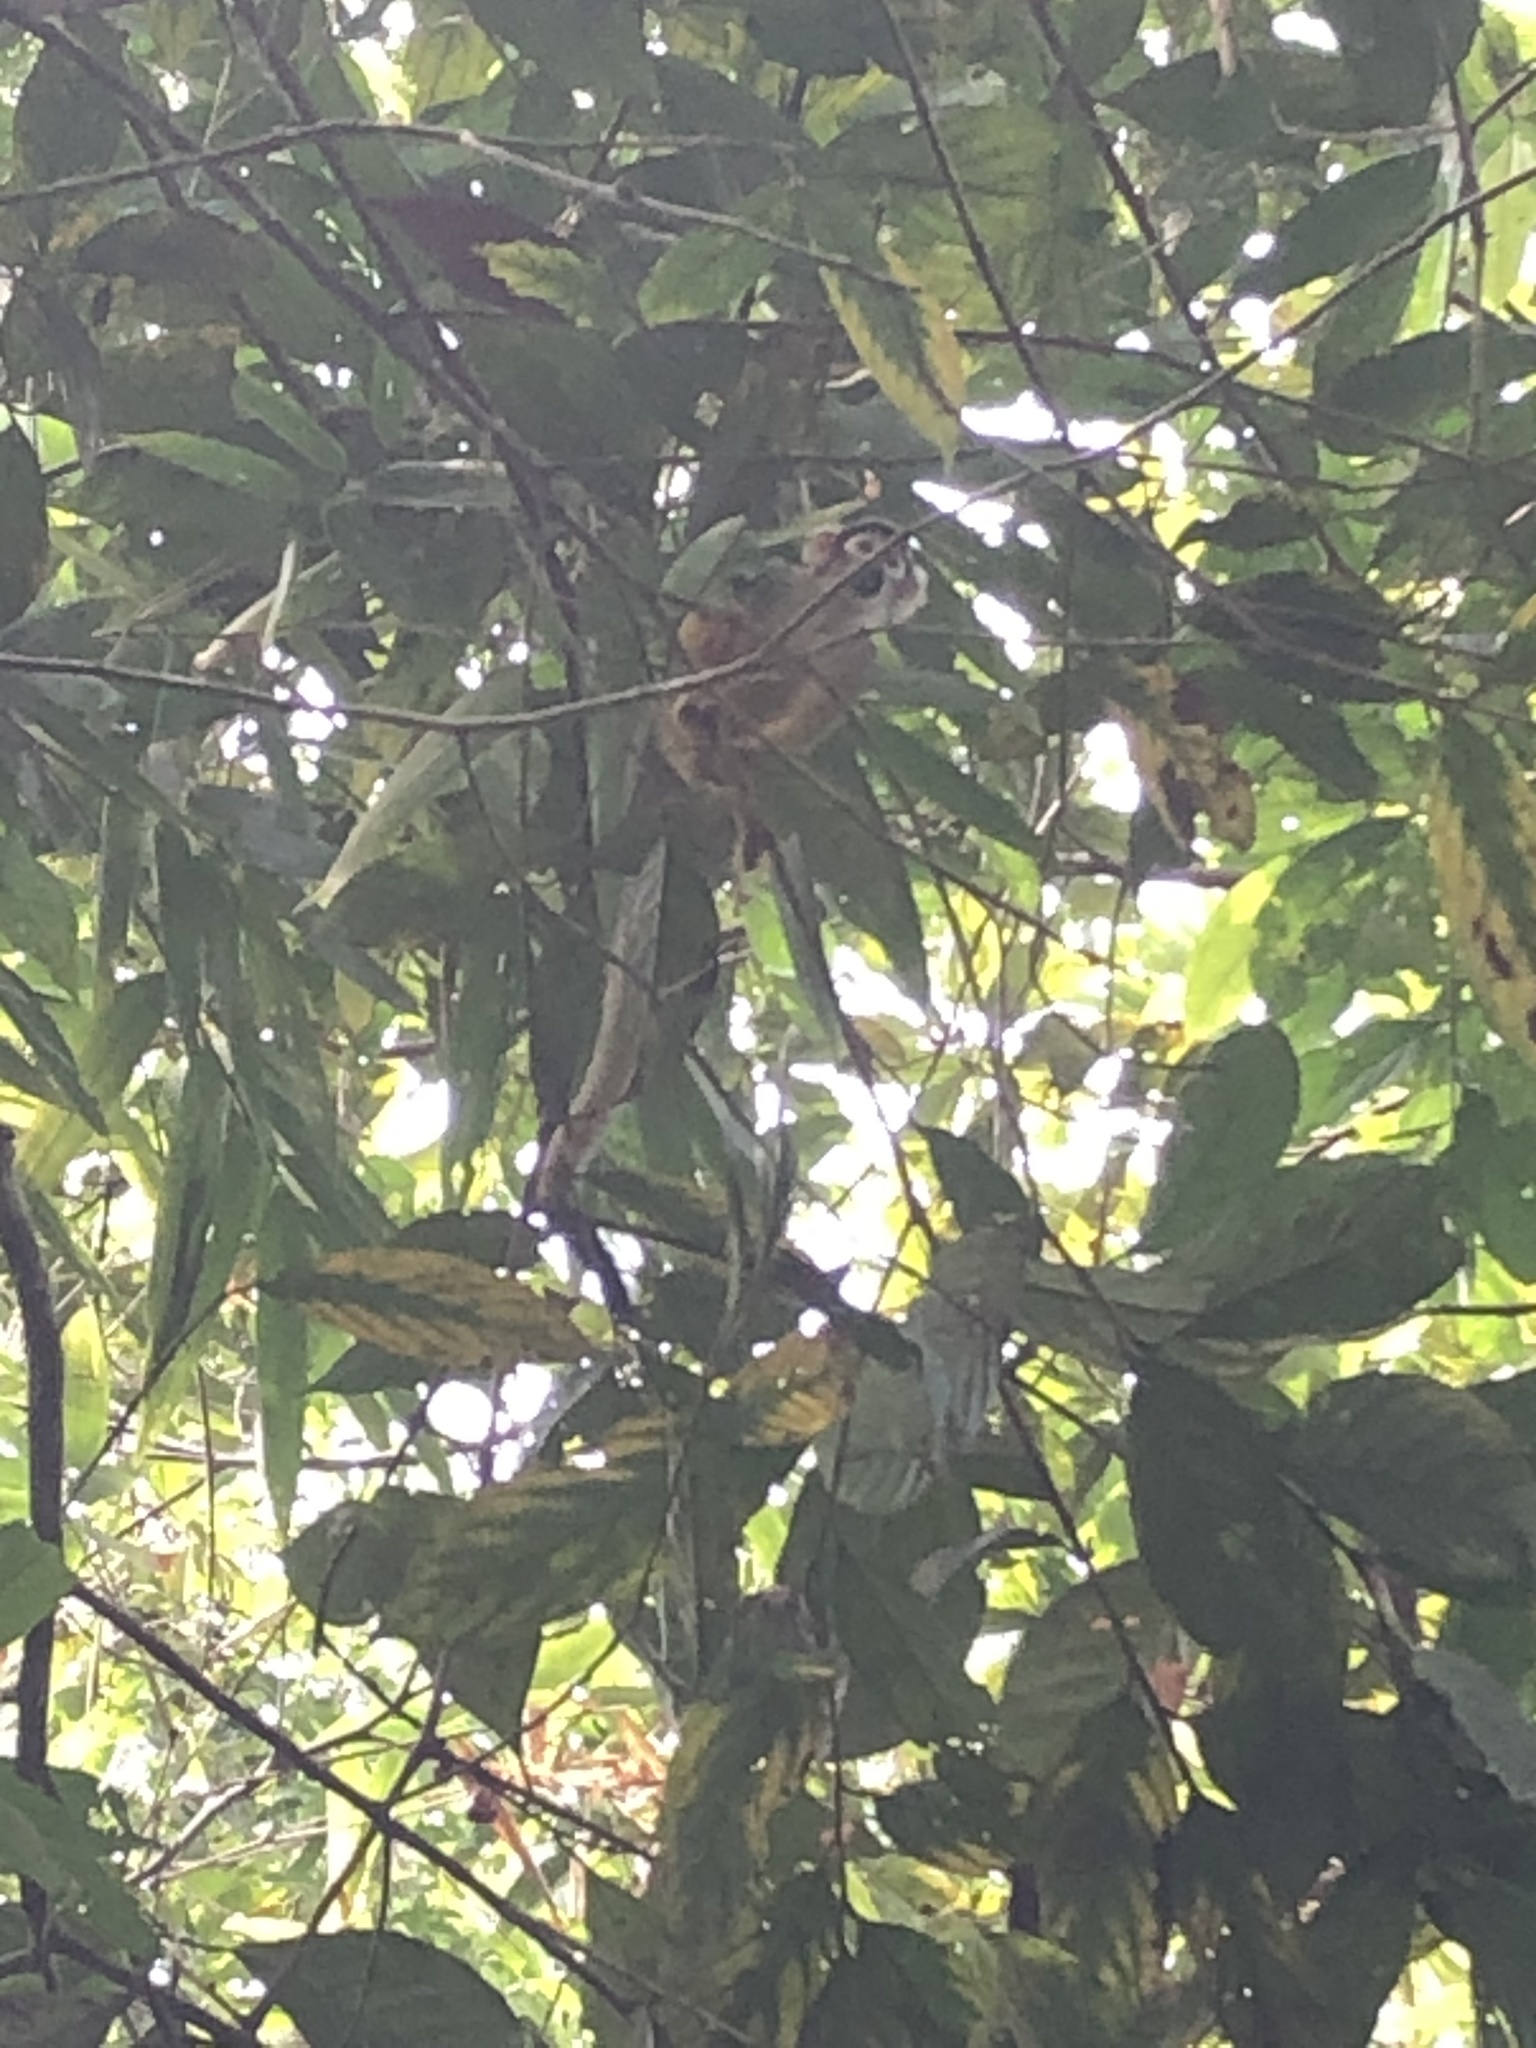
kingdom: Animalia
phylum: Chordata
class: Mammalia
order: Primates
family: Cebidae
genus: Saimiri
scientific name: Saimiri boliviensis
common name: Black-capped squirrel monkey
